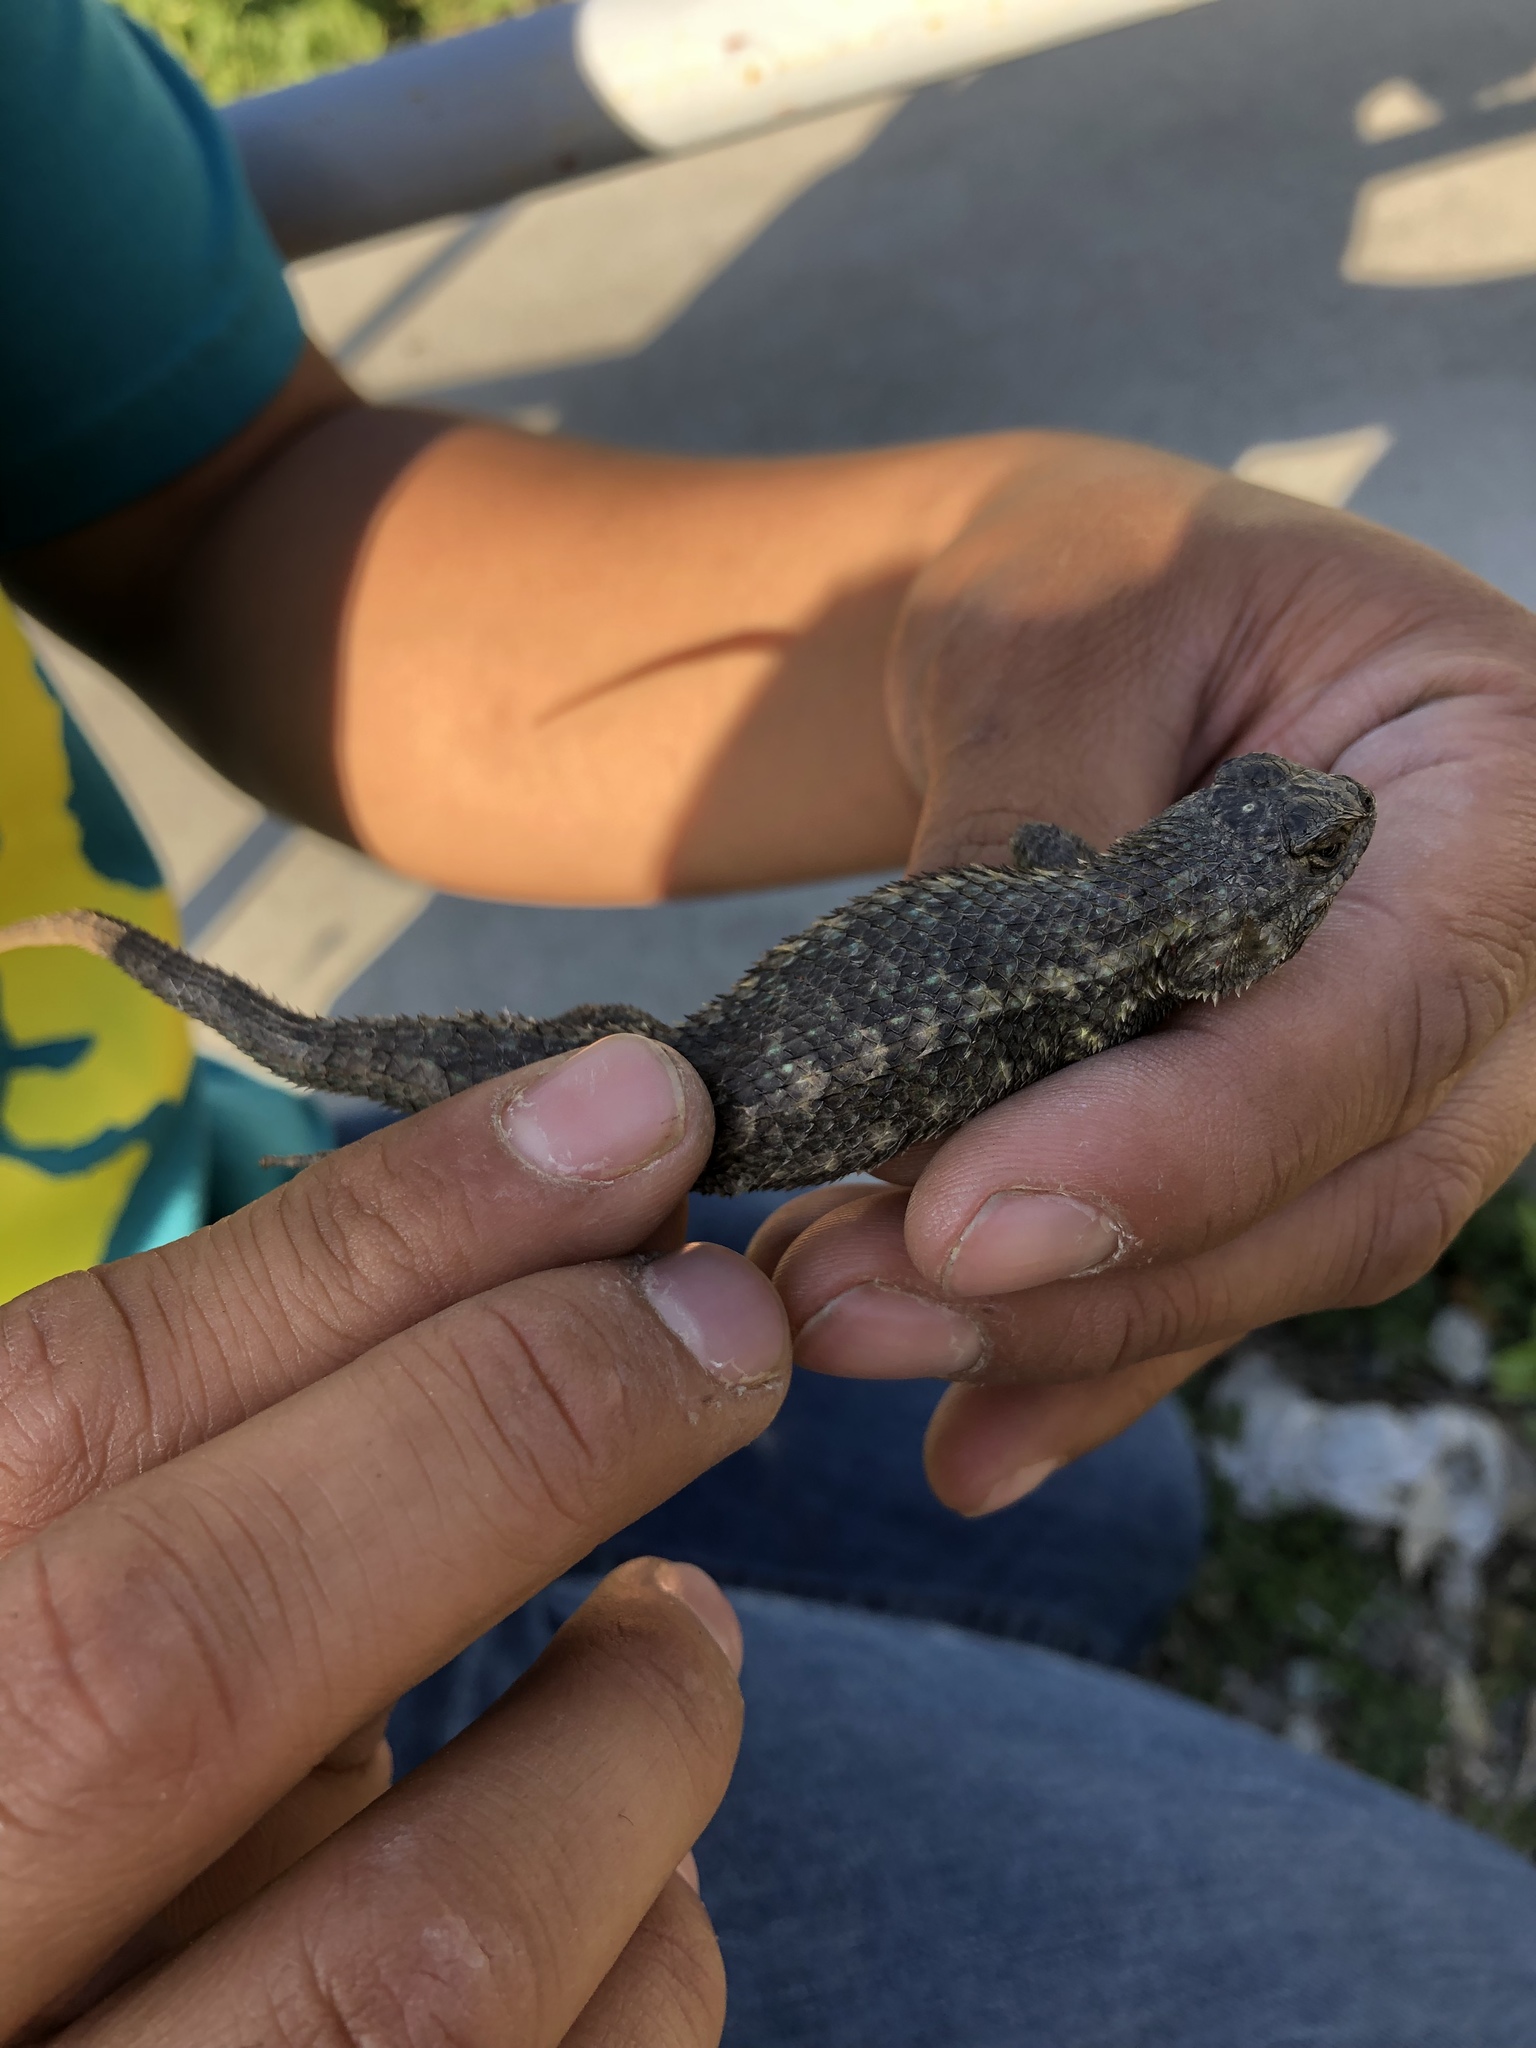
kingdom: Animalia
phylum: Chordata
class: Squamata
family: Phrynosomatidae
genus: Sceloporus
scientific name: Sceloporus occidentalis
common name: Western fence lizard
